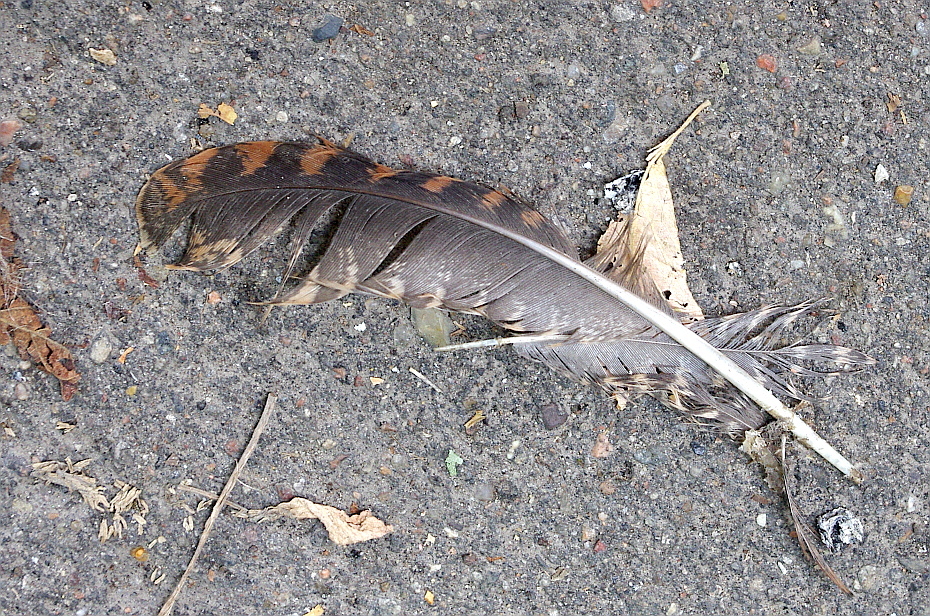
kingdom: Animalia
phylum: Chordata
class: Aves
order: Charadriiformes
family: Scolopacidae
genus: Scolopax
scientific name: Scolopax rusticola
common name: Eurasian woodcock
